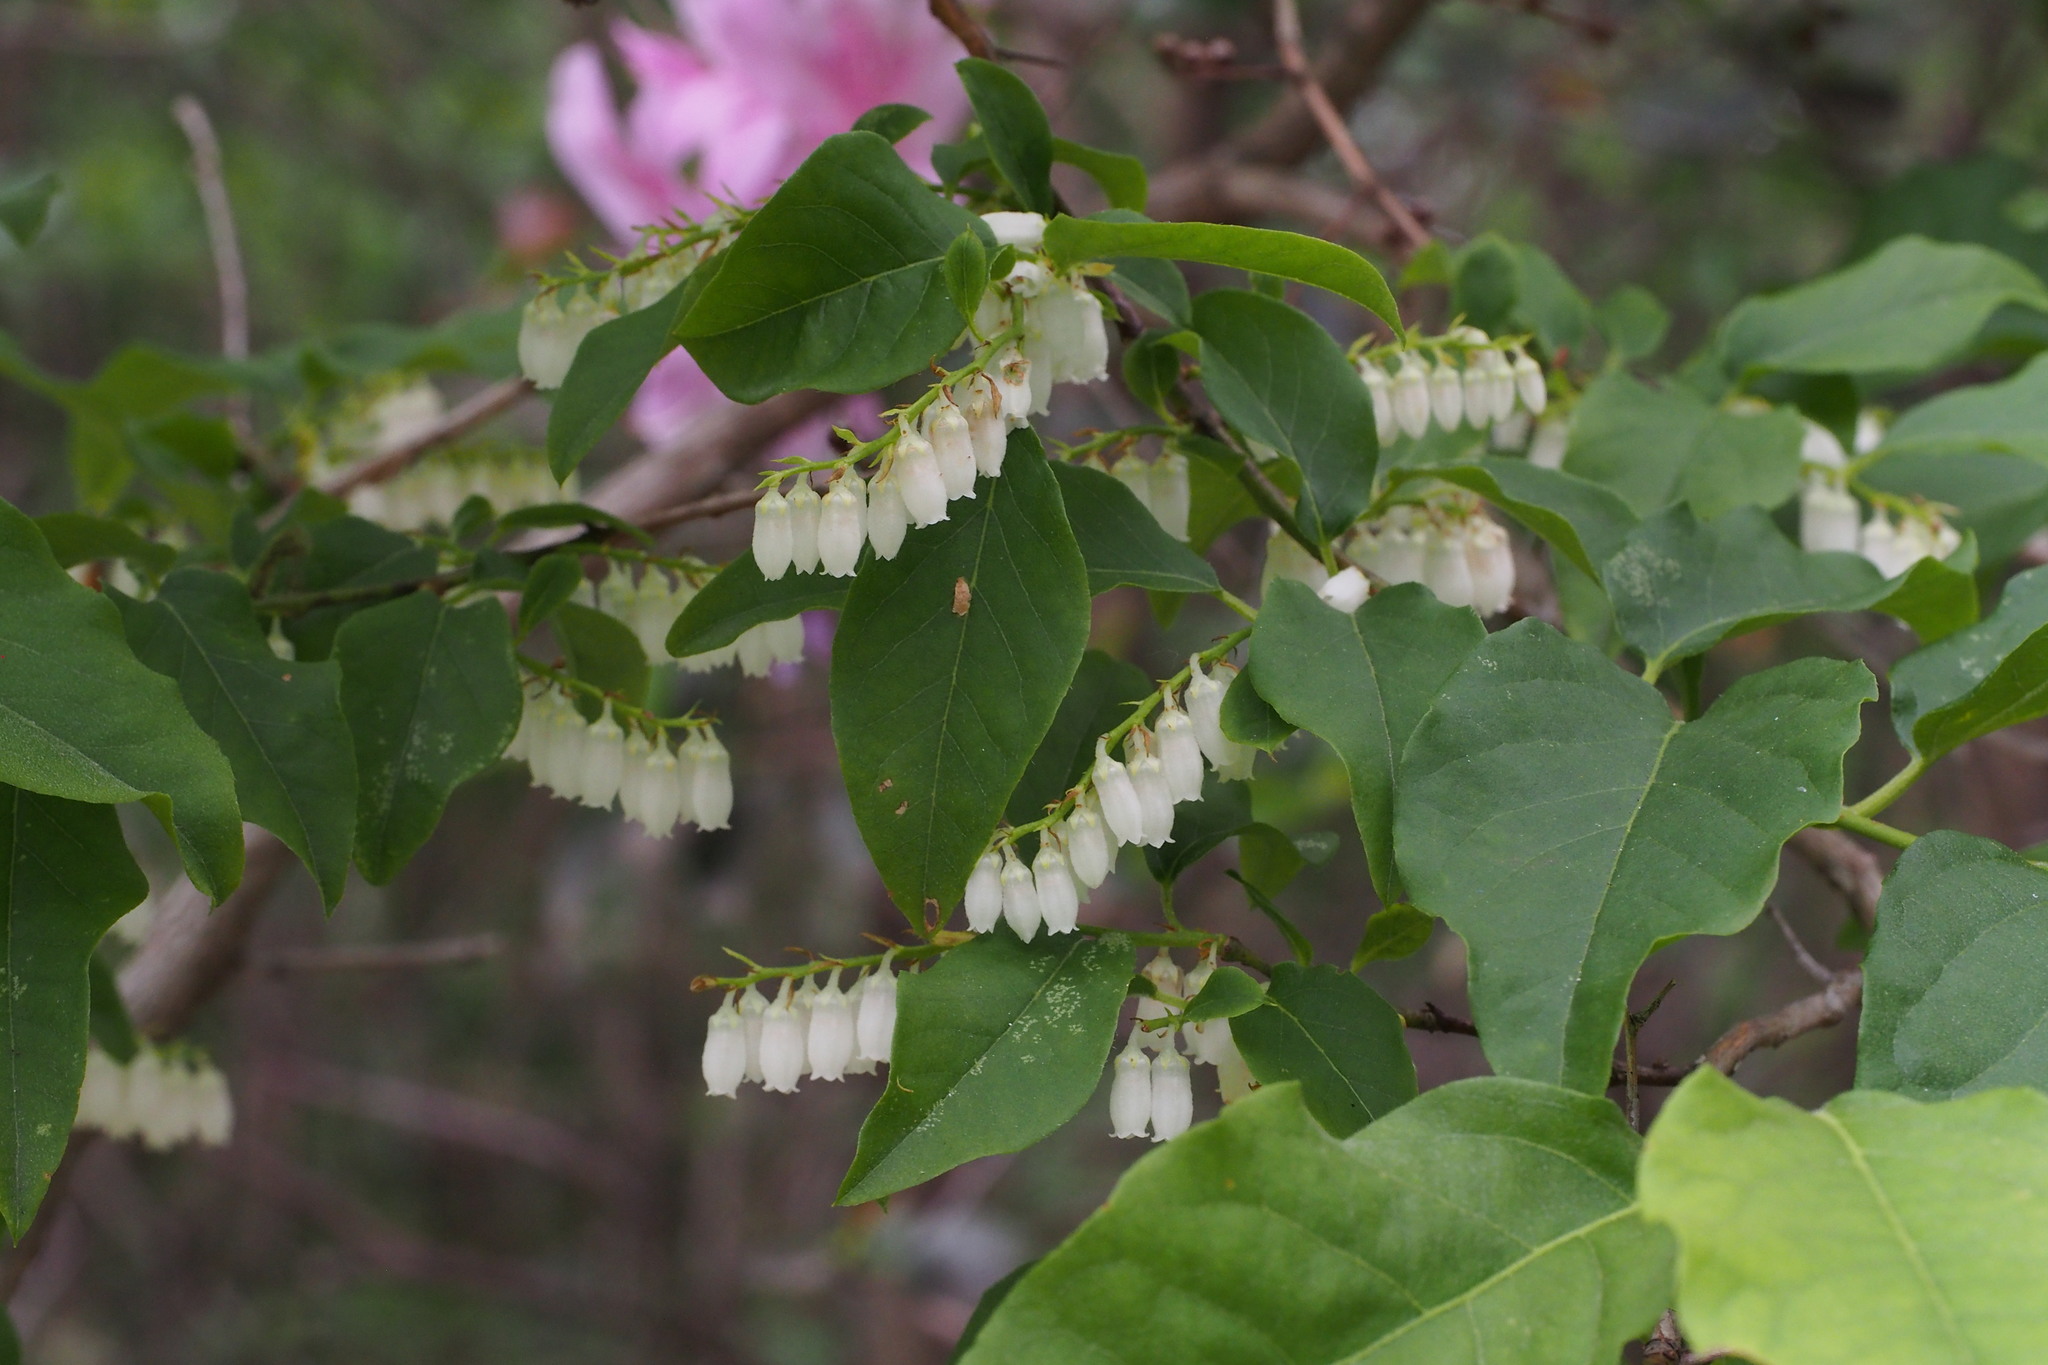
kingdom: Plantae
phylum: Tracheophyta
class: Magnoliopsida
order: Ericales
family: Ericaceae
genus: Lyonia
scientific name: Lyonia ovalifolia
